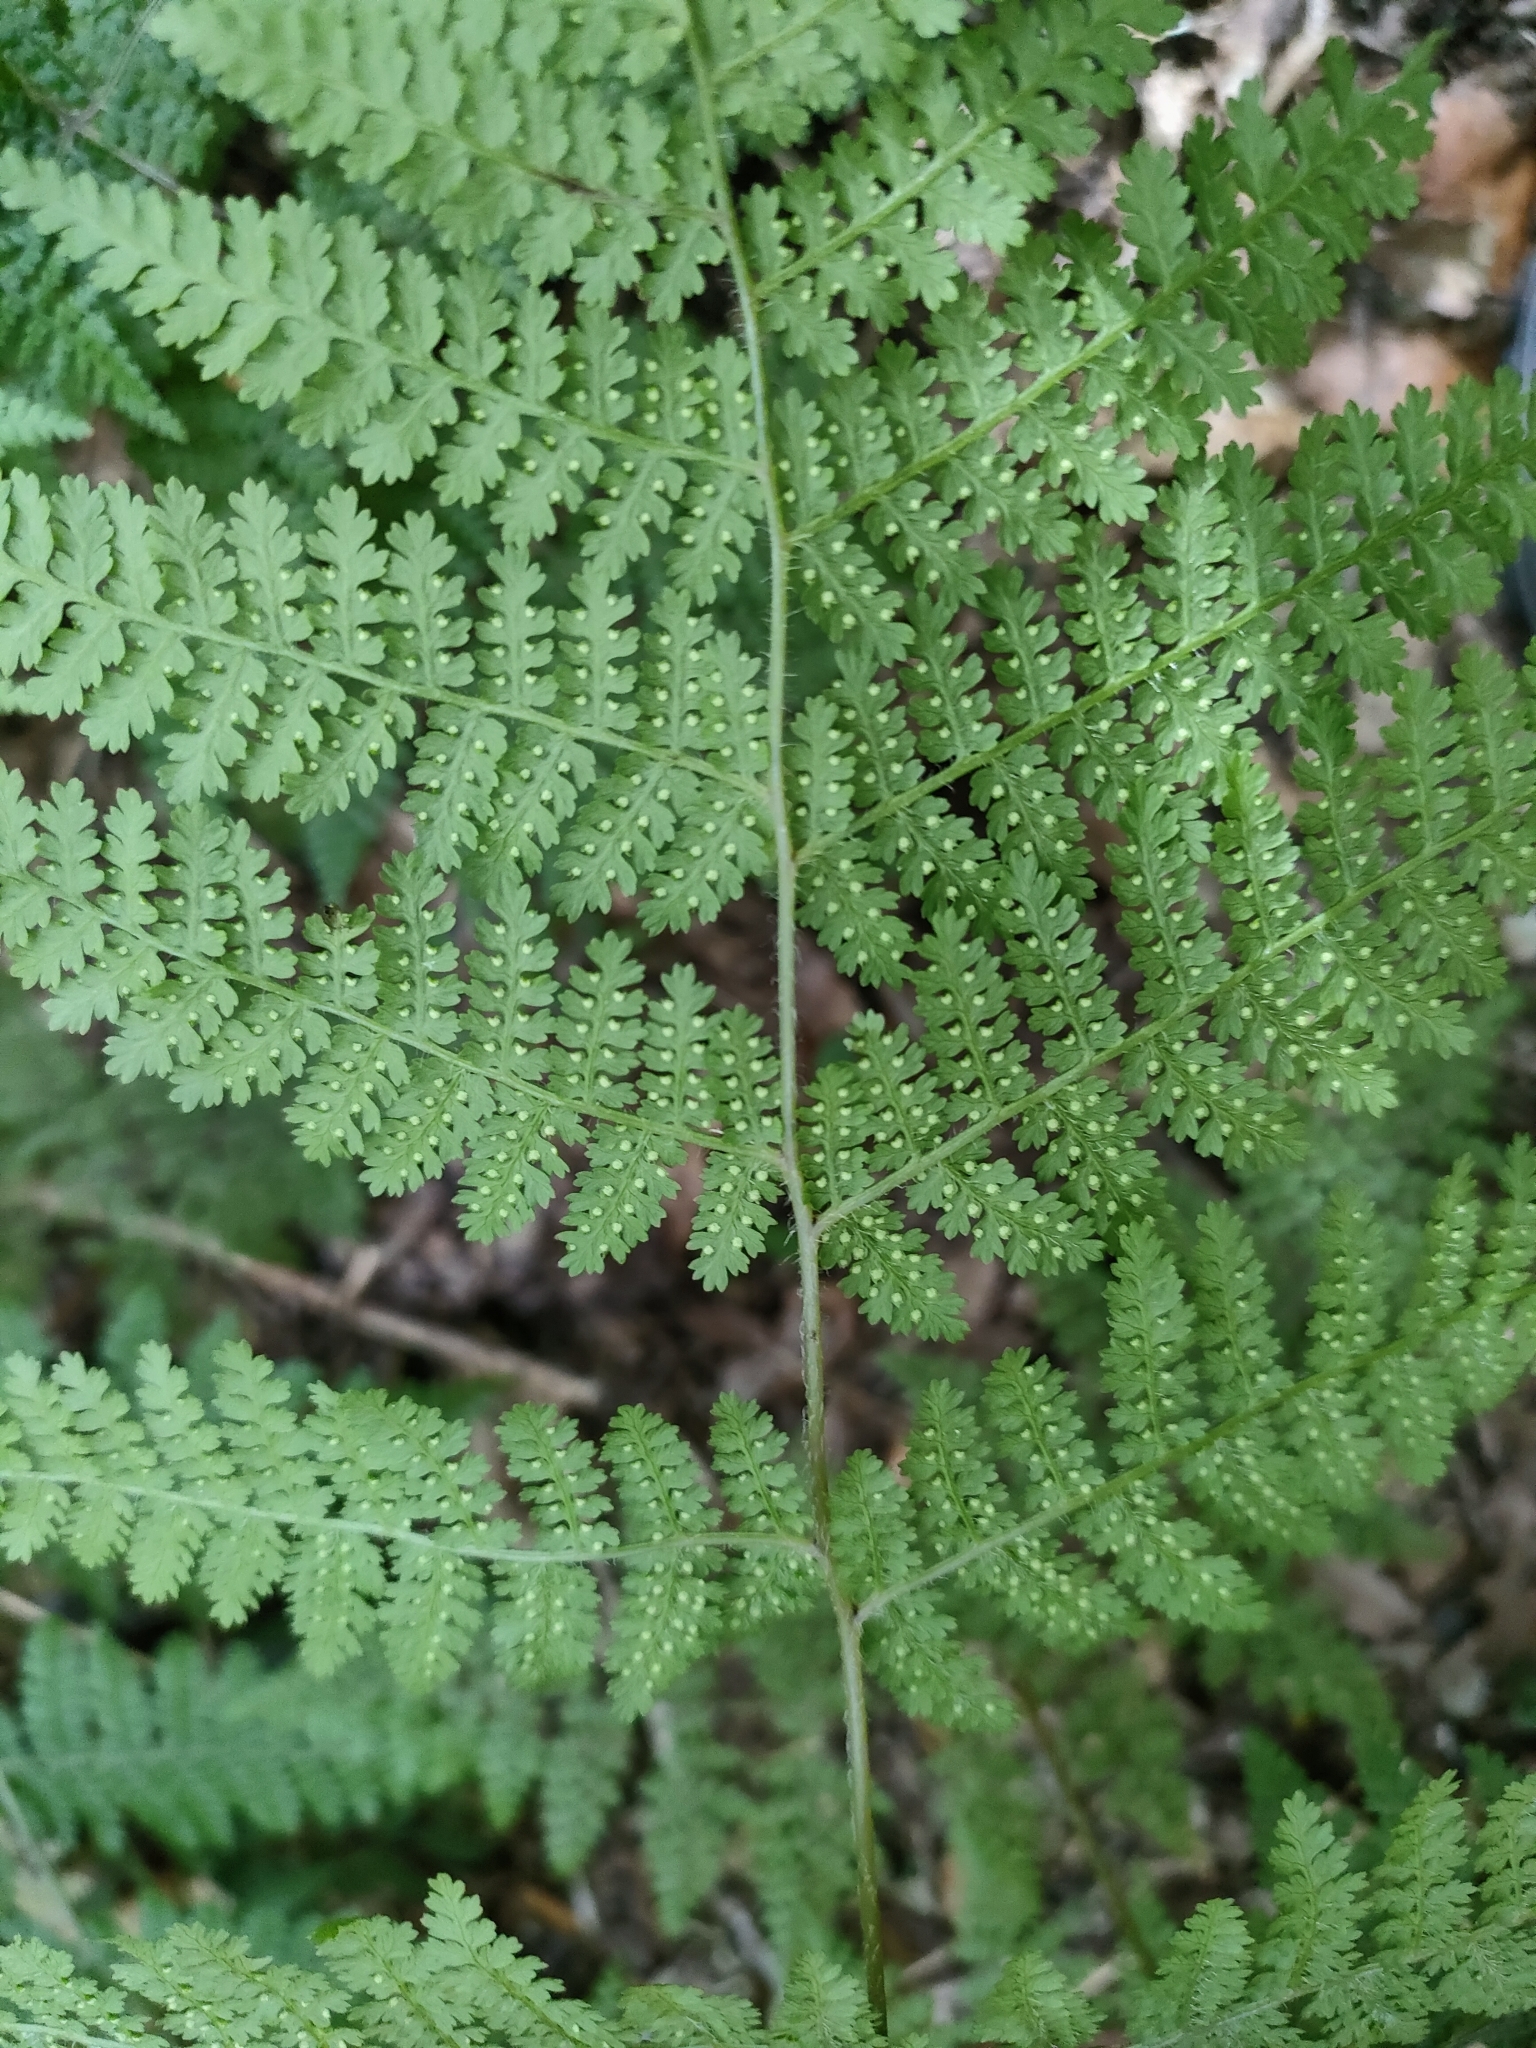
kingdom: Plantae
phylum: Tracheophyta
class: Polypodiopsida
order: Polypodiales
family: Dennstaedtiaceae
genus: Hypolepis
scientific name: Hypolepis millefolium
